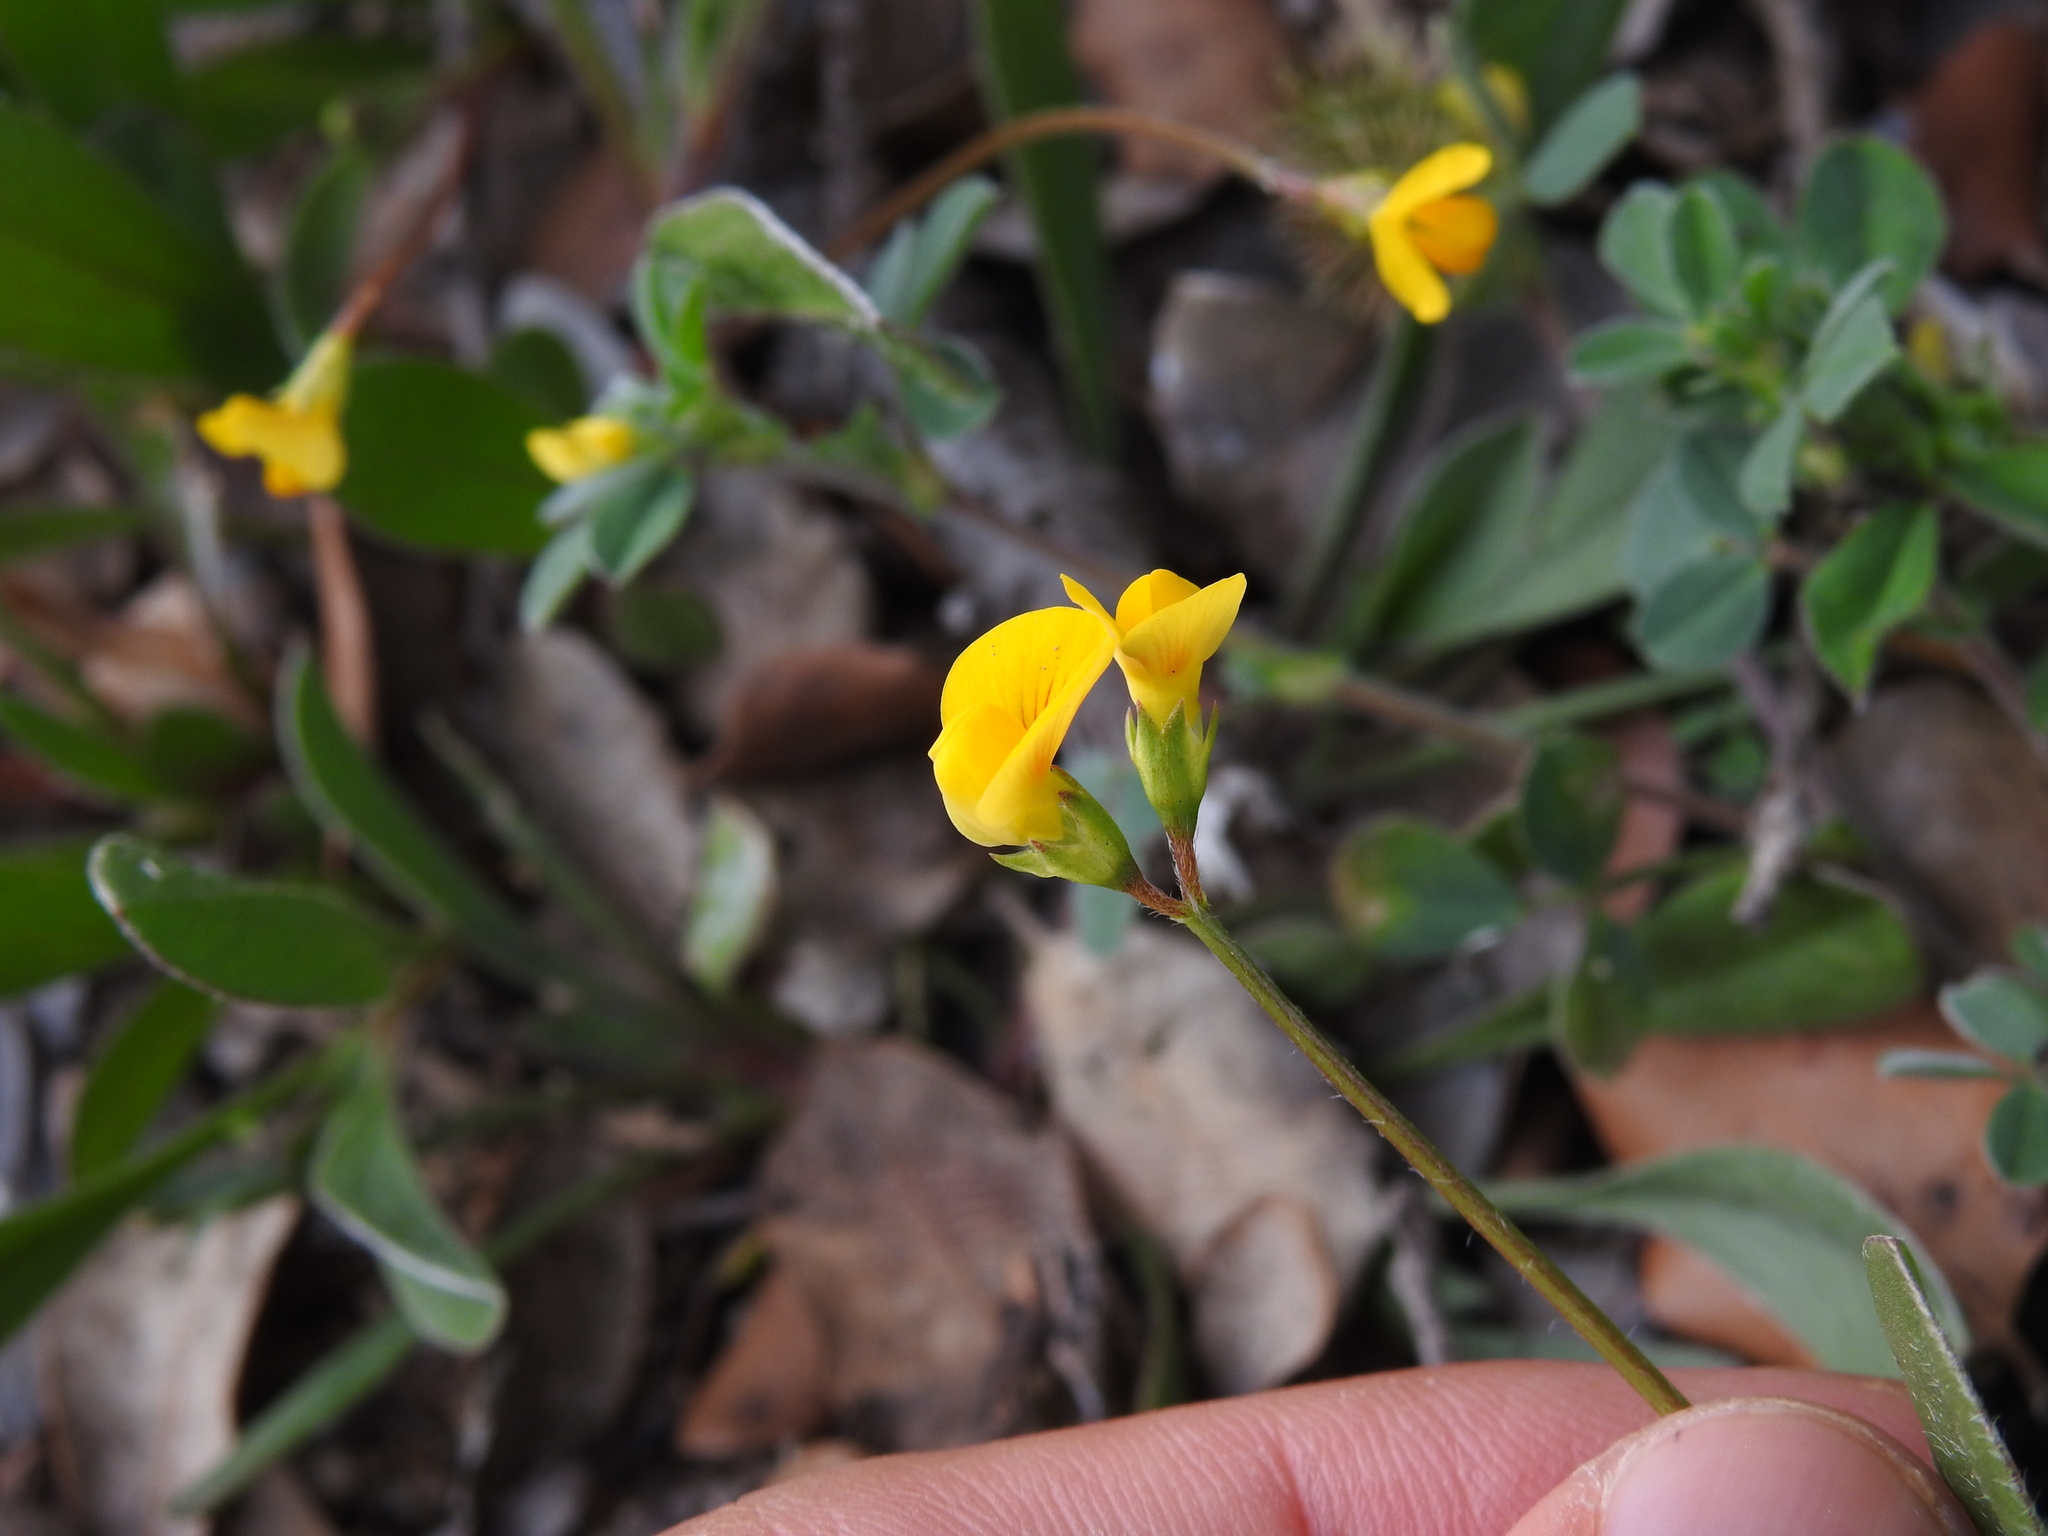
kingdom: Plantae
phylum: Tracheophyta
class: Magnoliopsida
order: Fabales
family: Fabaceae
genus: Scorpiurus
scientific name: Scorpiurus muricatus
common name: Caterpillar-plant
